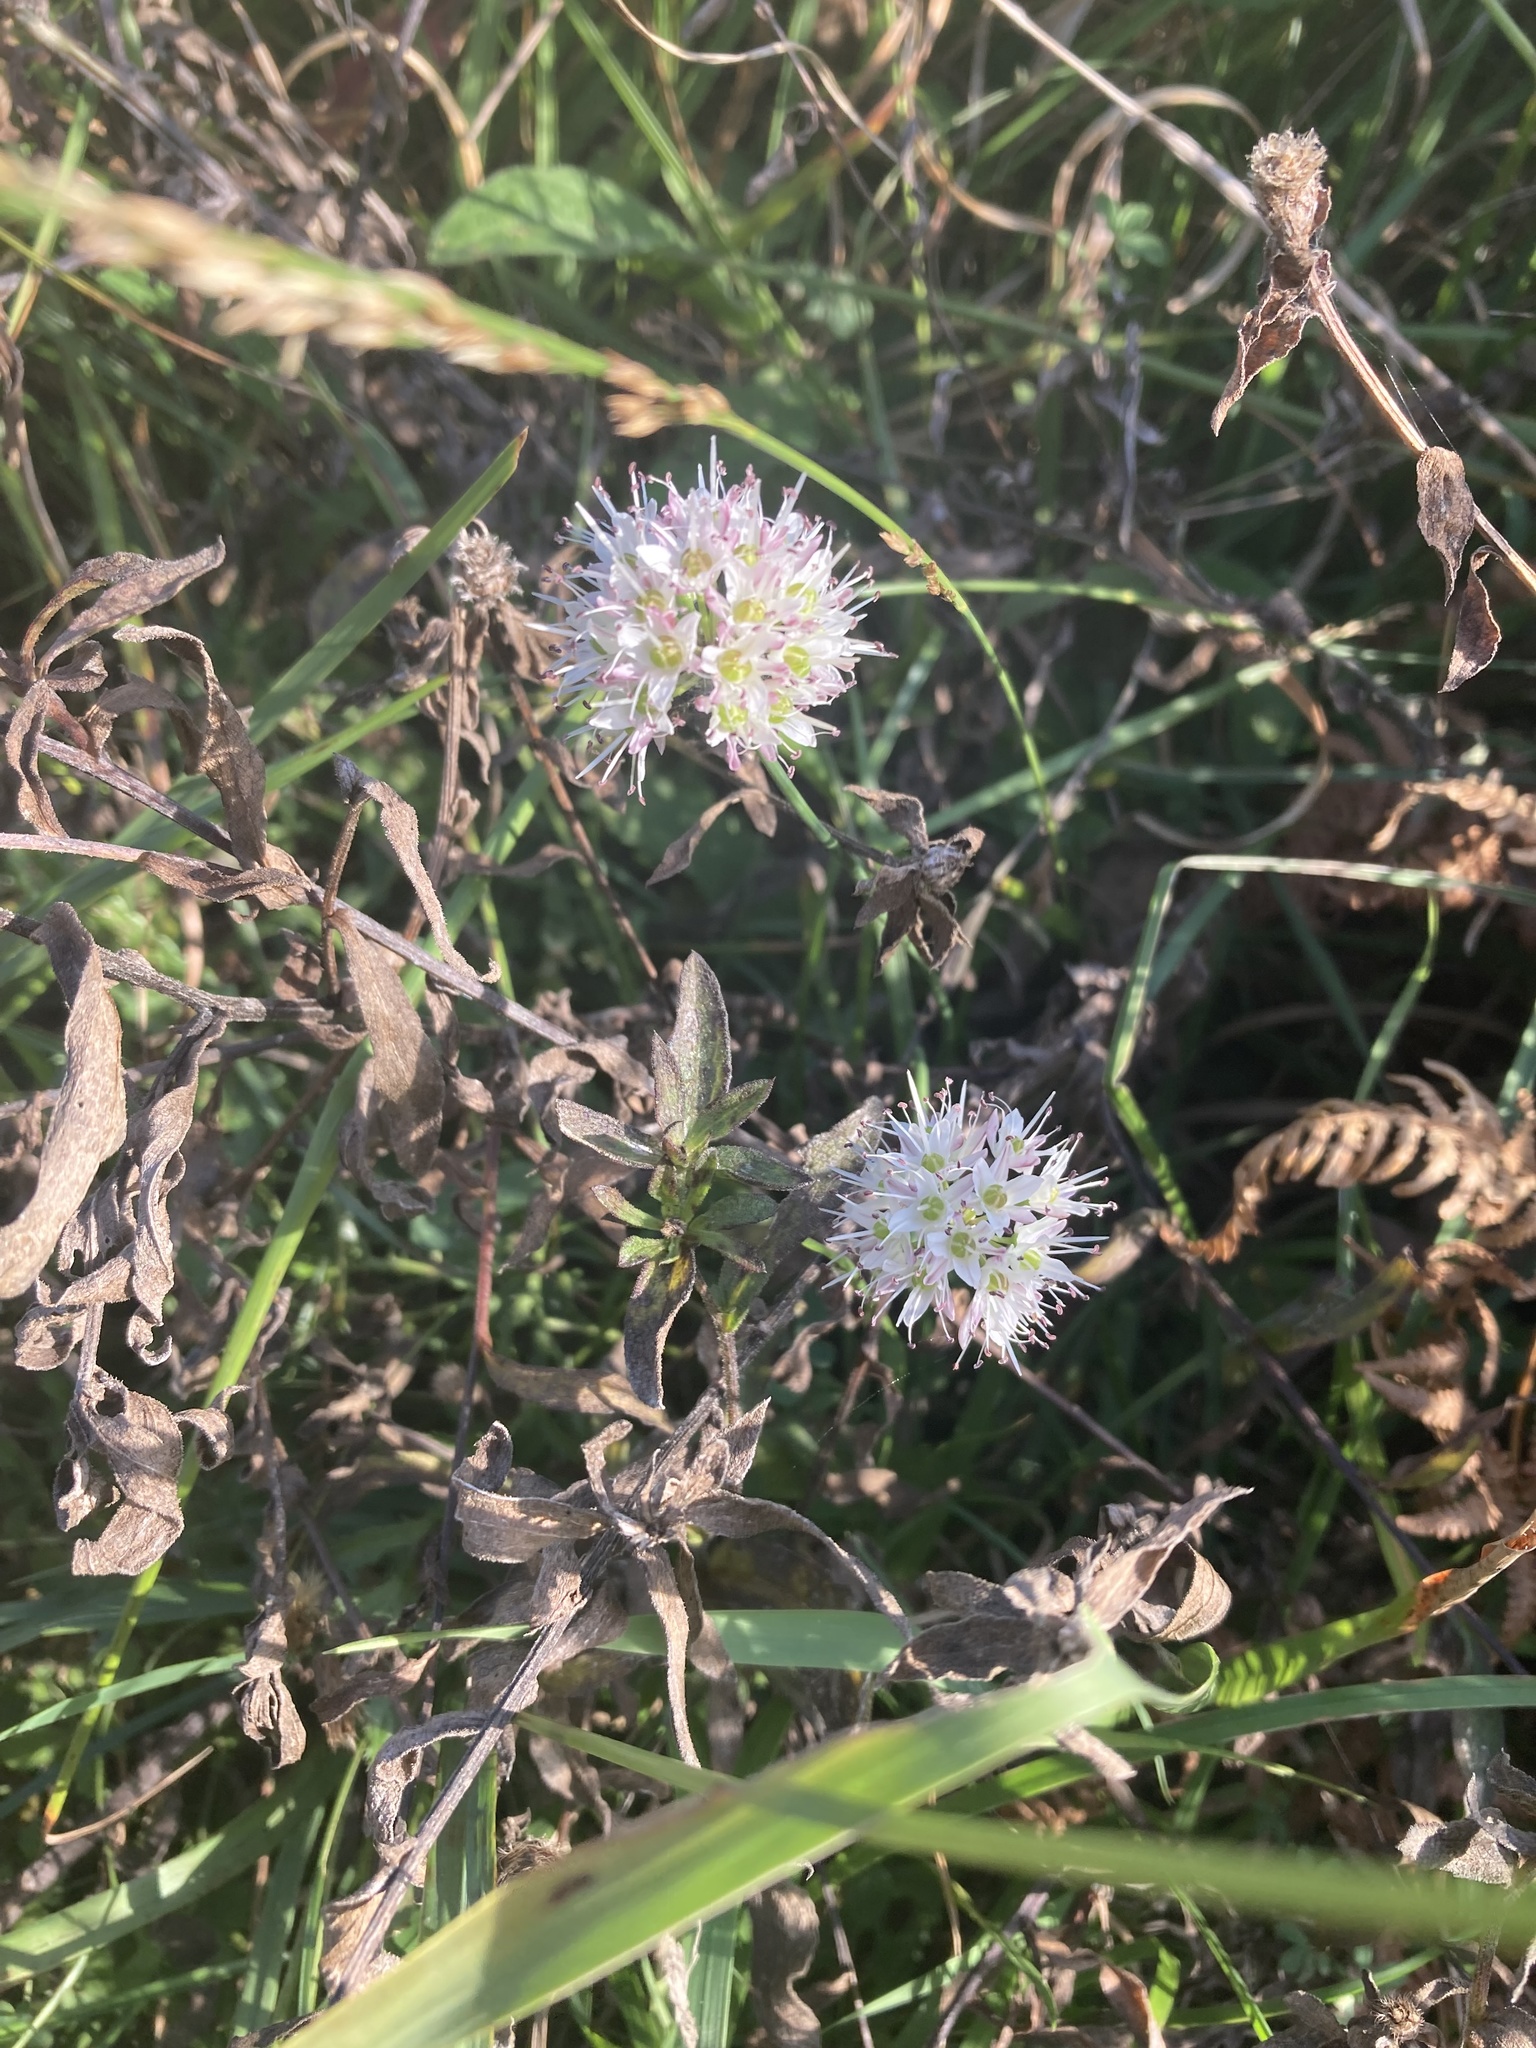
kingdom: Plantae
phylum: Tracheophyta
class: Liliopsida
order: Asparagales
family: Amaryllidaceae
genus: Allium
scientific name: Allium ericetorum
